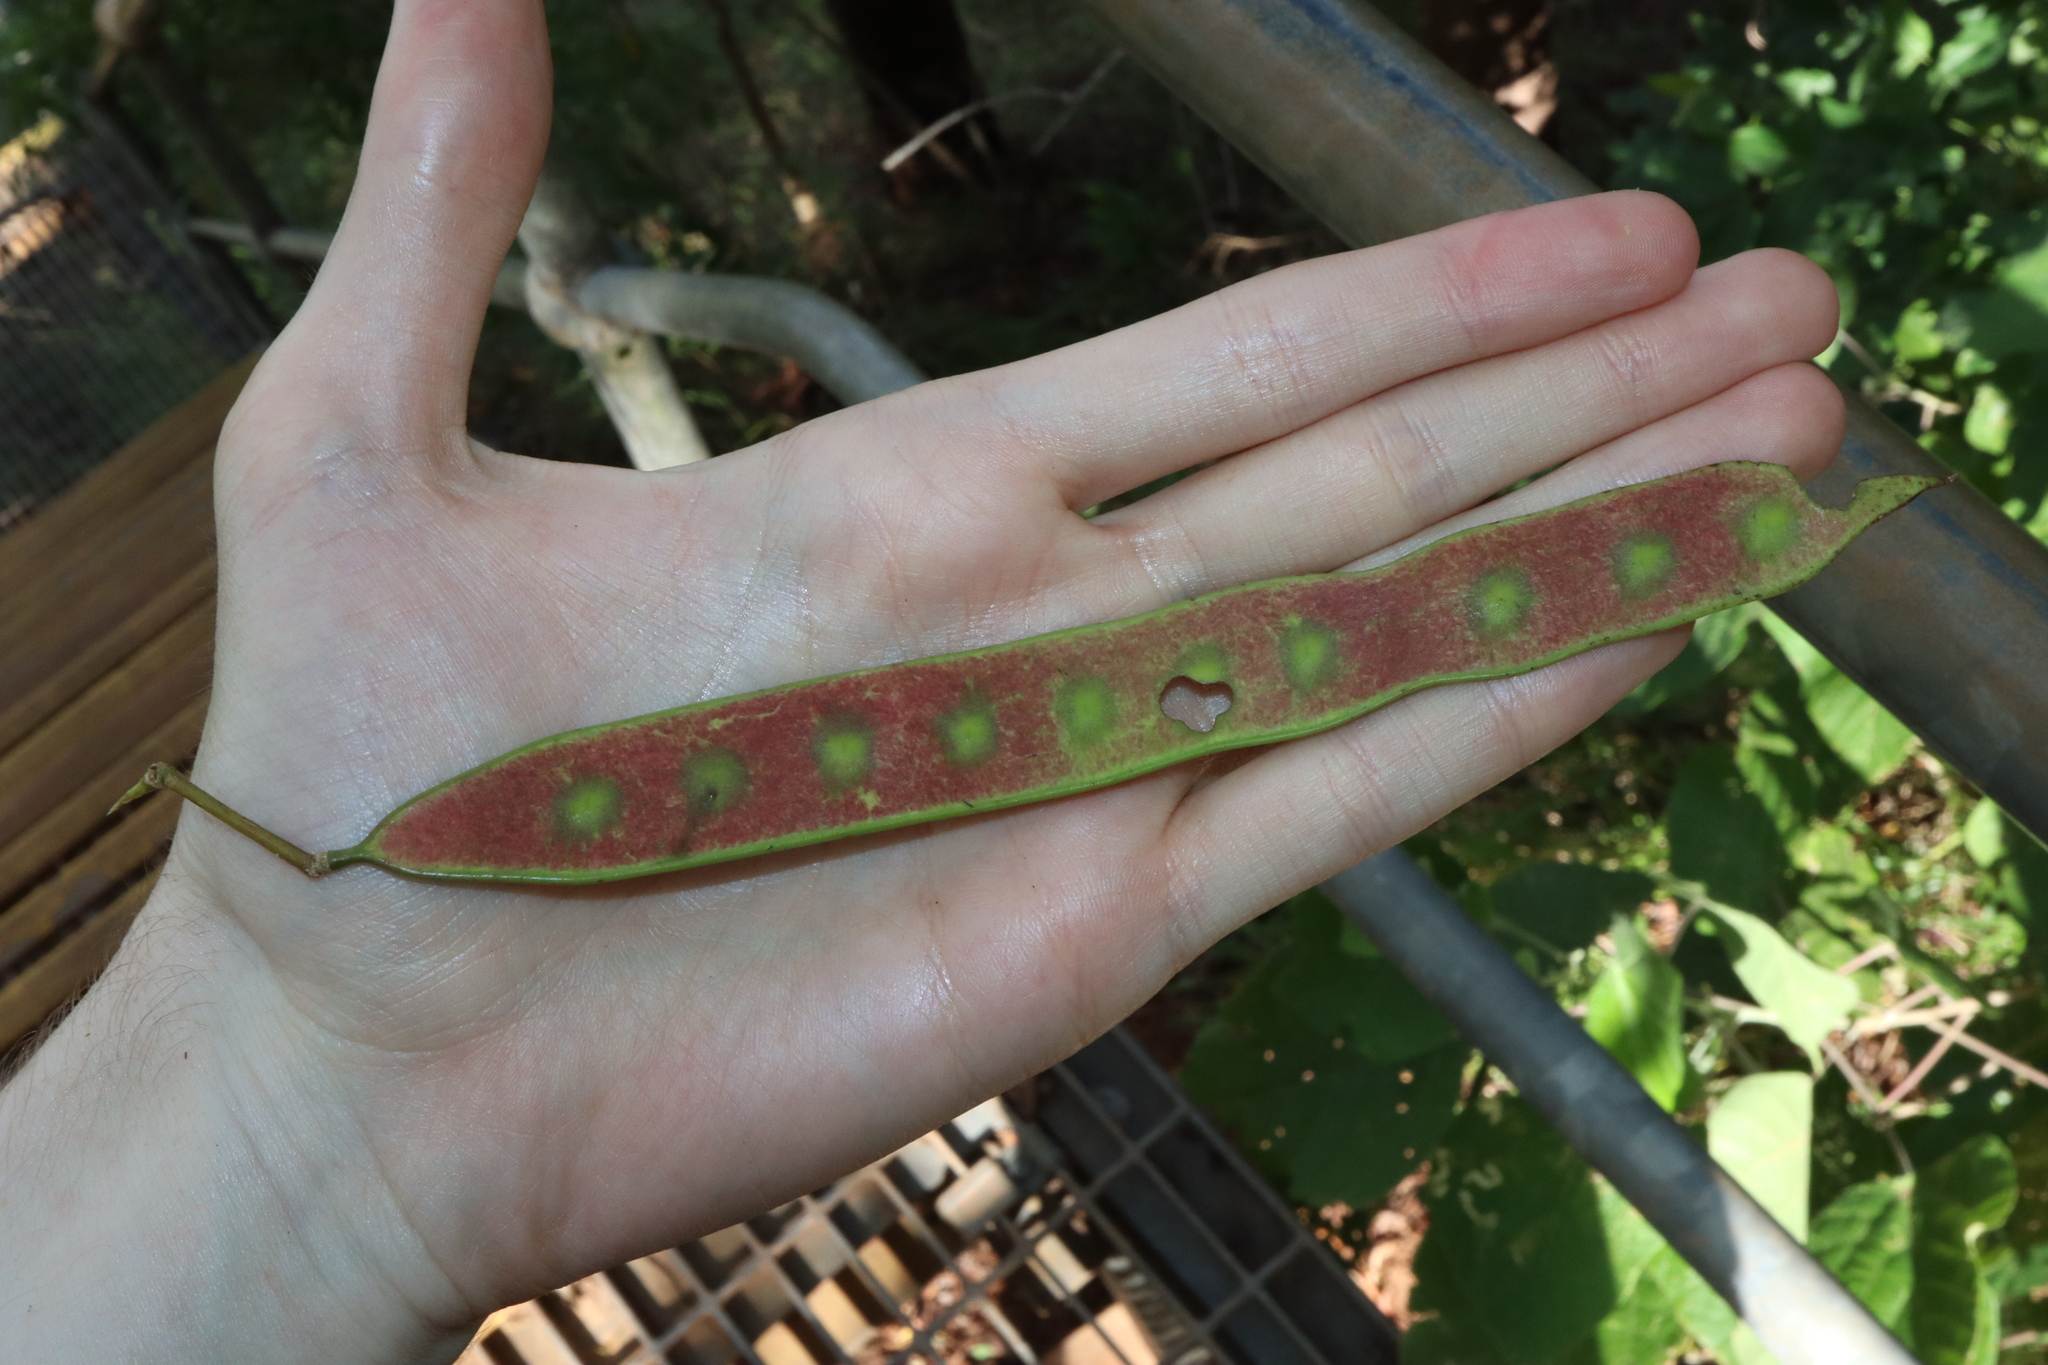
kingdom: Plantae
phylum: Tracheophyta
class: Magnoliopsida
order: Fabales
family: Fabaceae
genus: Albizia
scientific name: Albizia procera
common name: Tall albizia
